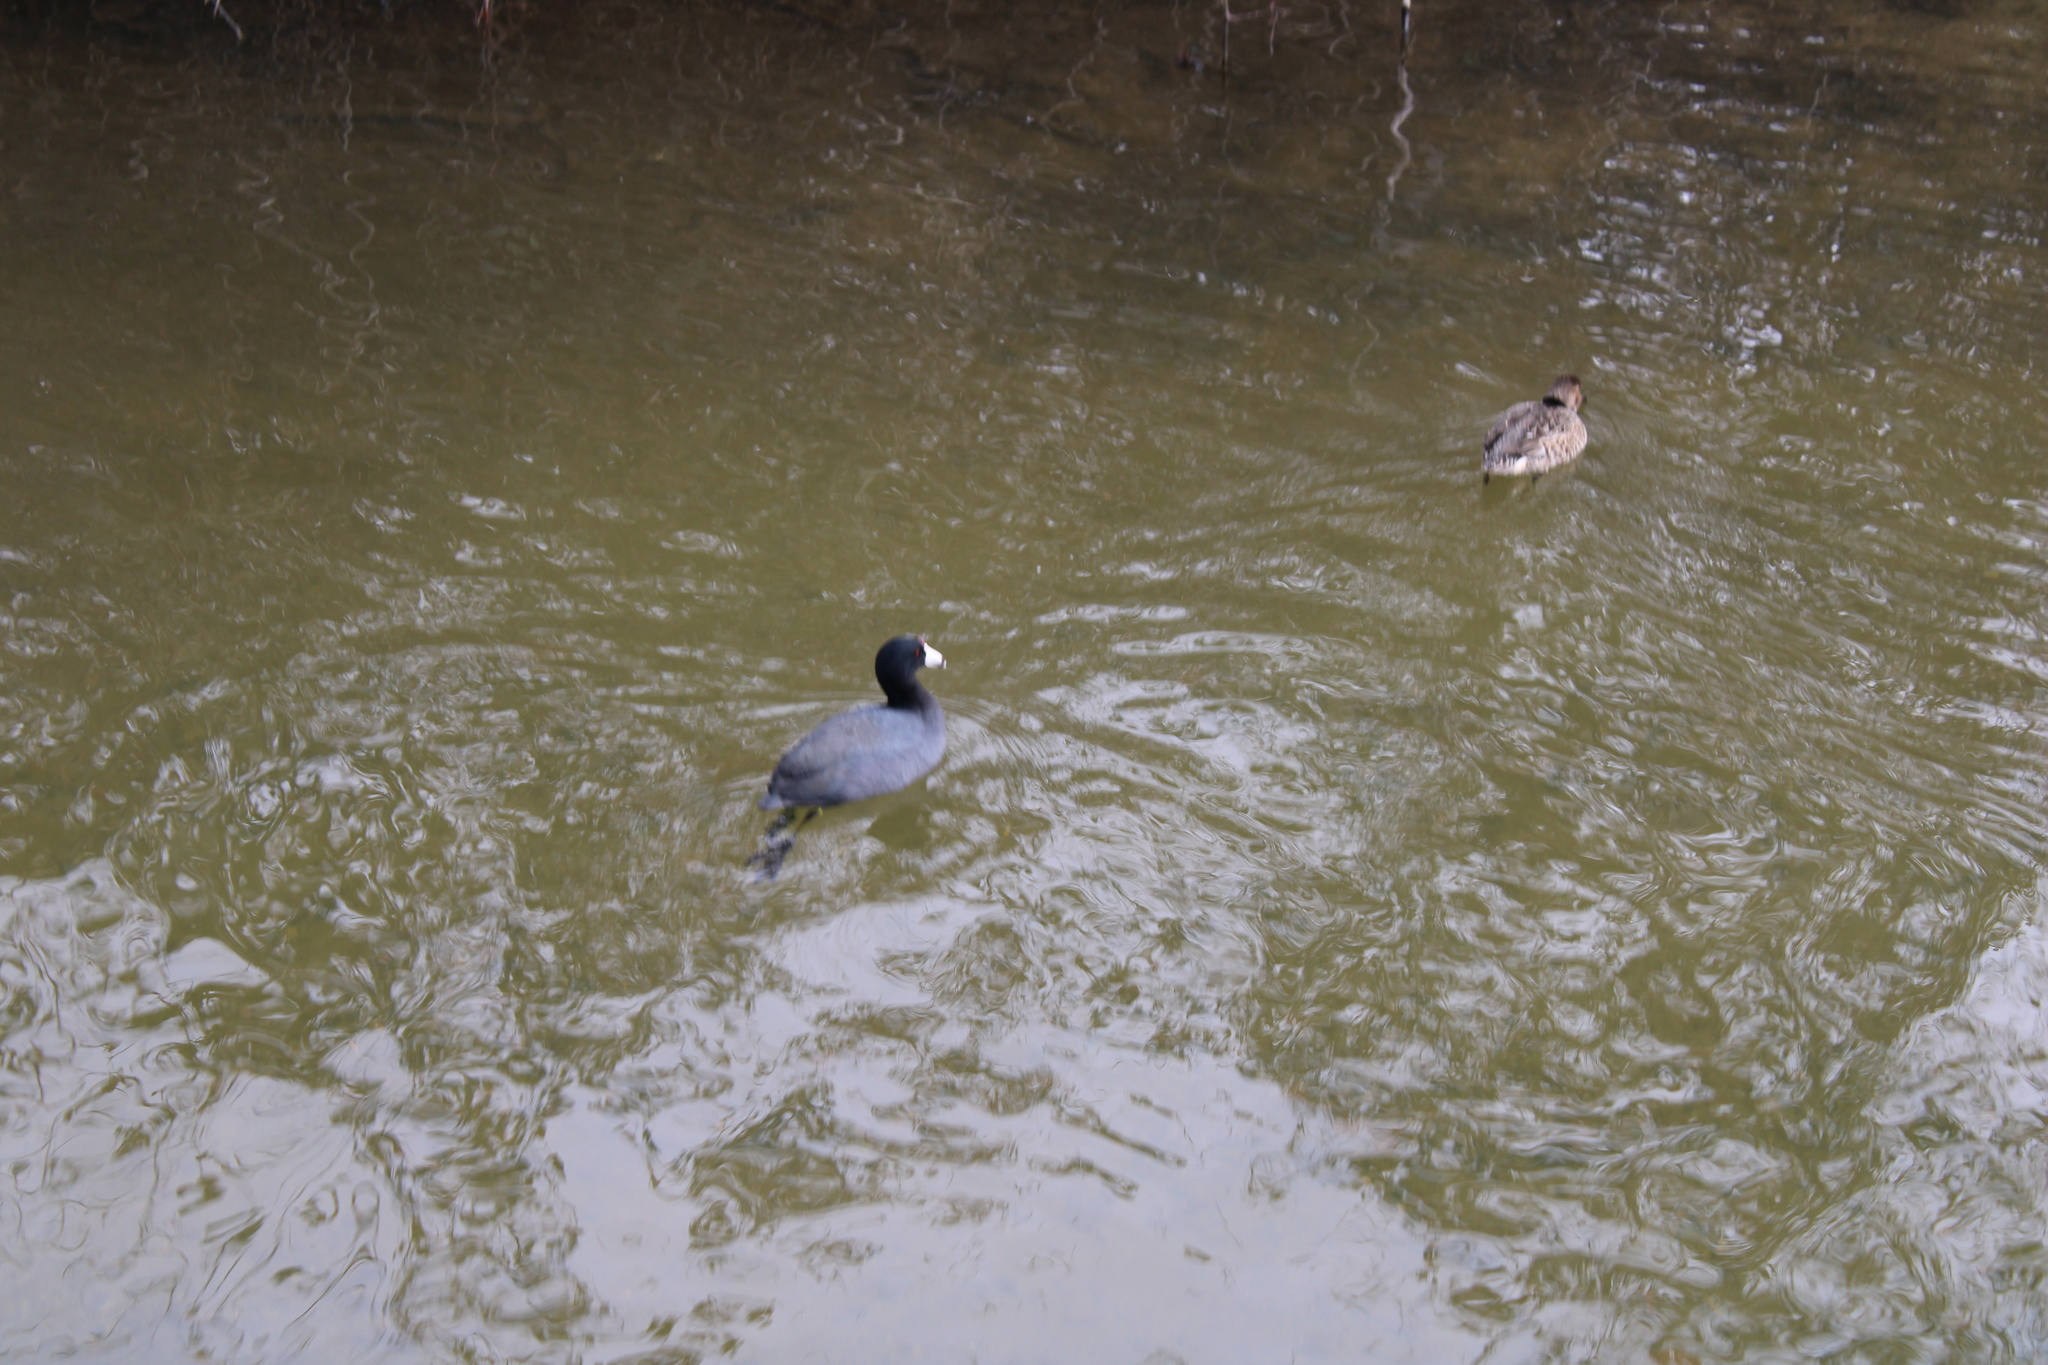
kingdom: Animalia
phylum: Chordata
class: Aves
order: Gruiformes
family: Rallidae
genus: Fulica
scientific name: Fulica americana
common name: American coot
